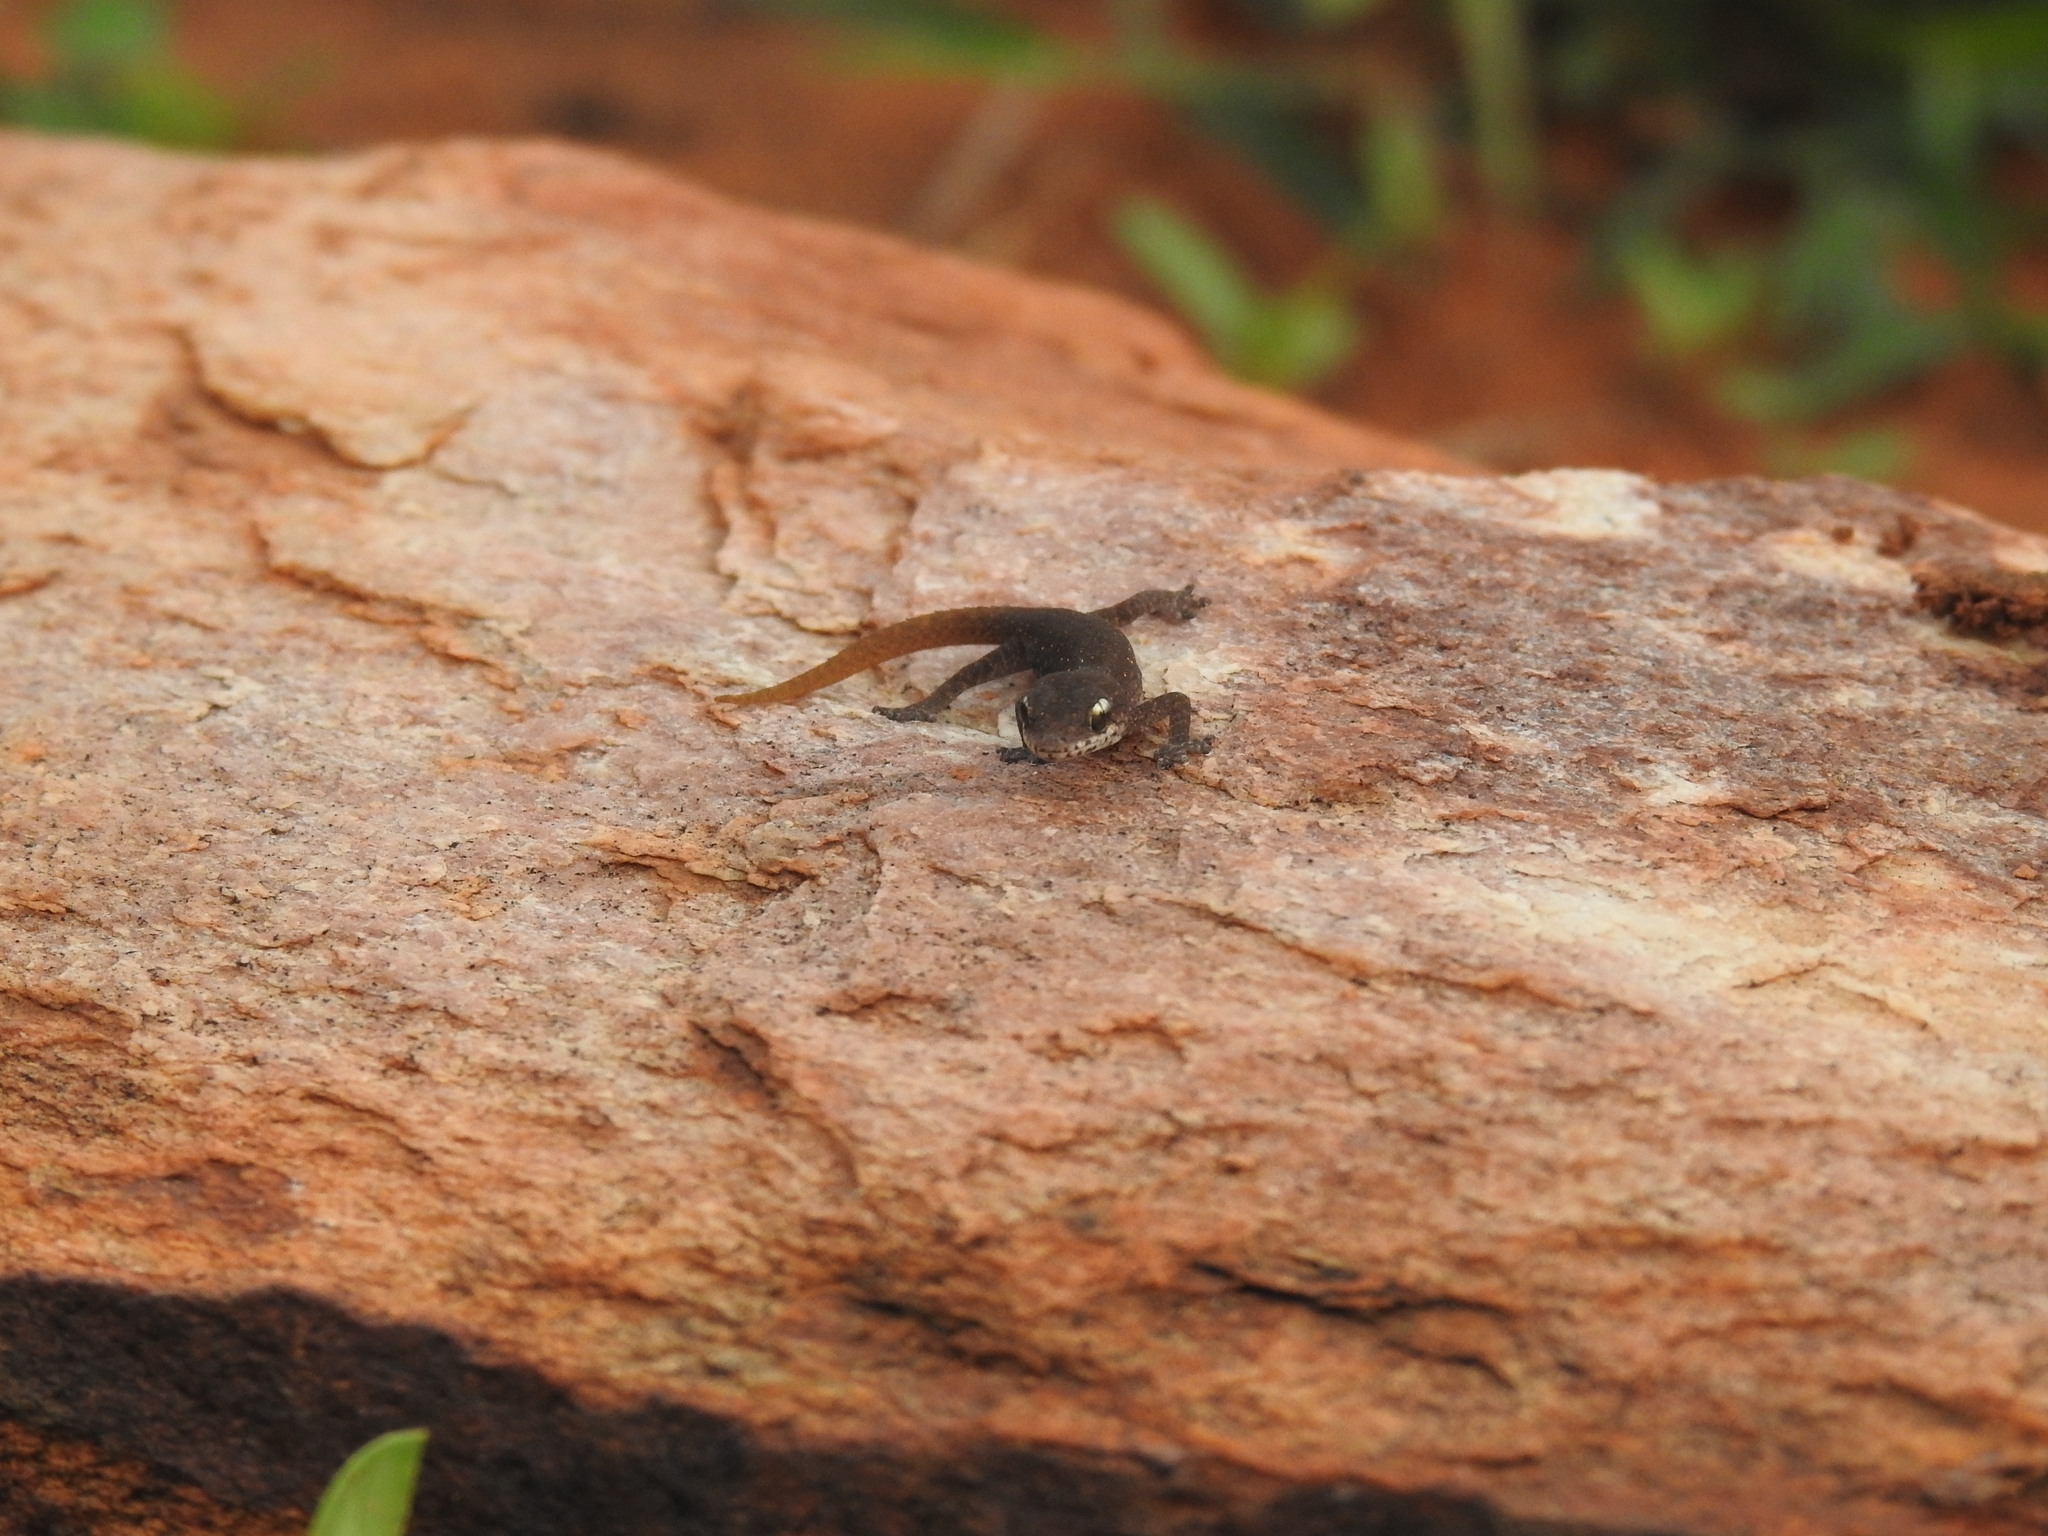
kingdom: Animalia
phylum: Chordata
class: Squamata
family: Gekkonidae
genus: Hemidactylus
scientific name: Hemidactylus reticulatus
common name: Reticulate leaf-toed gecko
